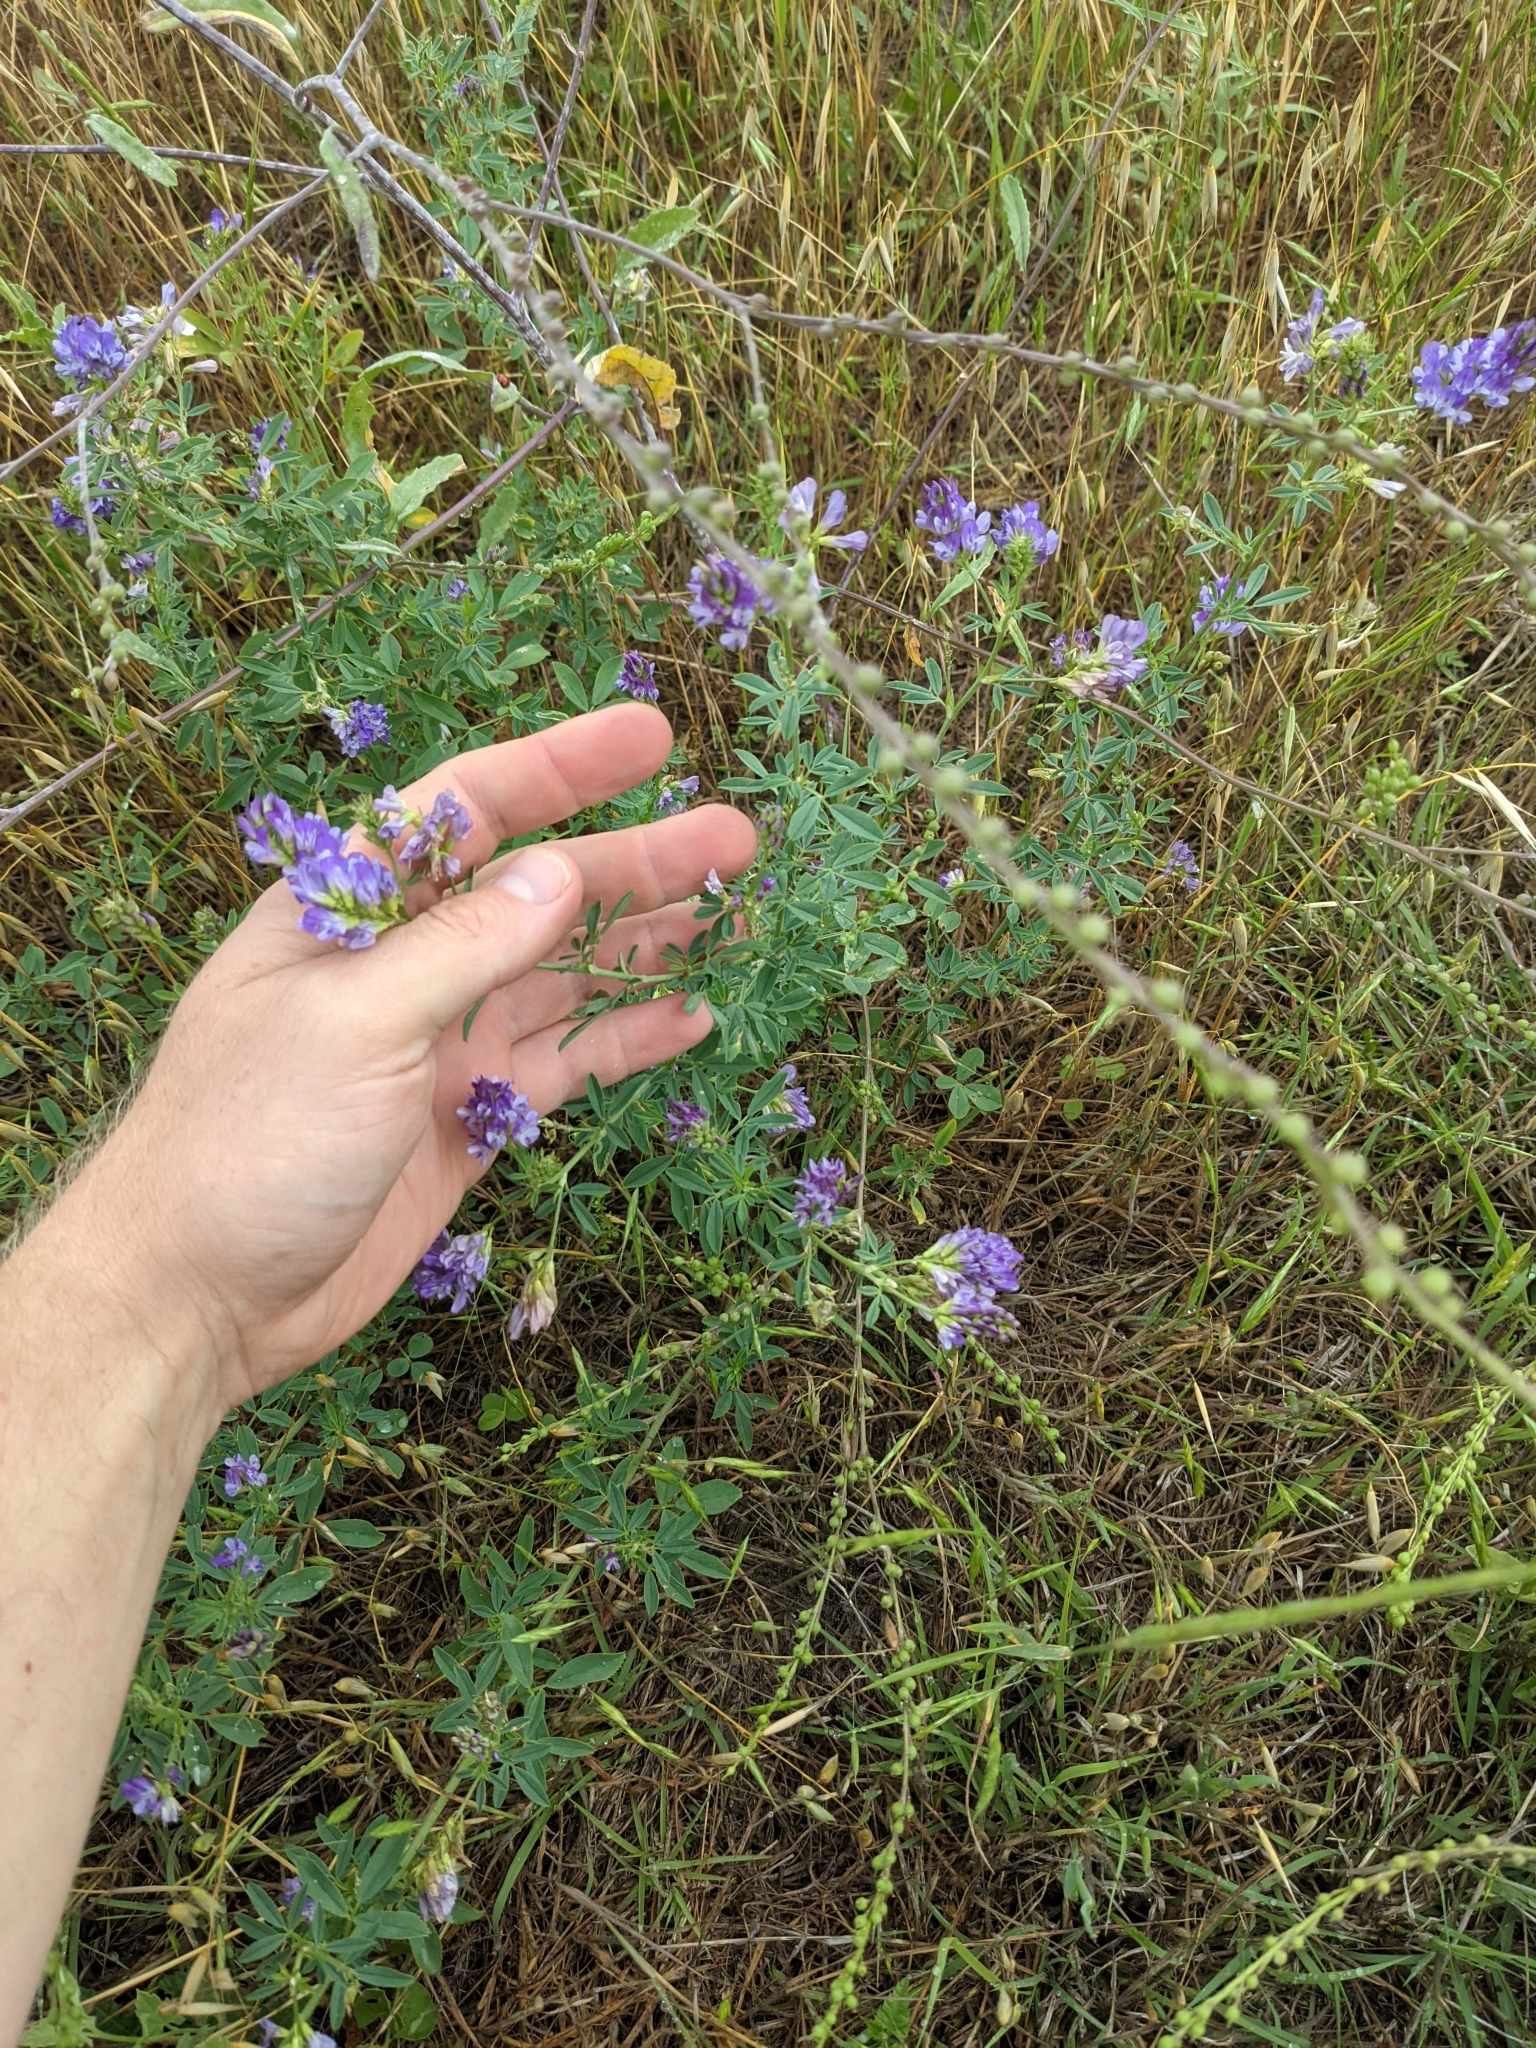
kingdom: Plantae
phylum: Tracheophyta
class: Magnoliopsida
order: Fabales
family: Fabaceae
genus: Medicago
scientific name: Medicago sativa
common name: Alfalfa
